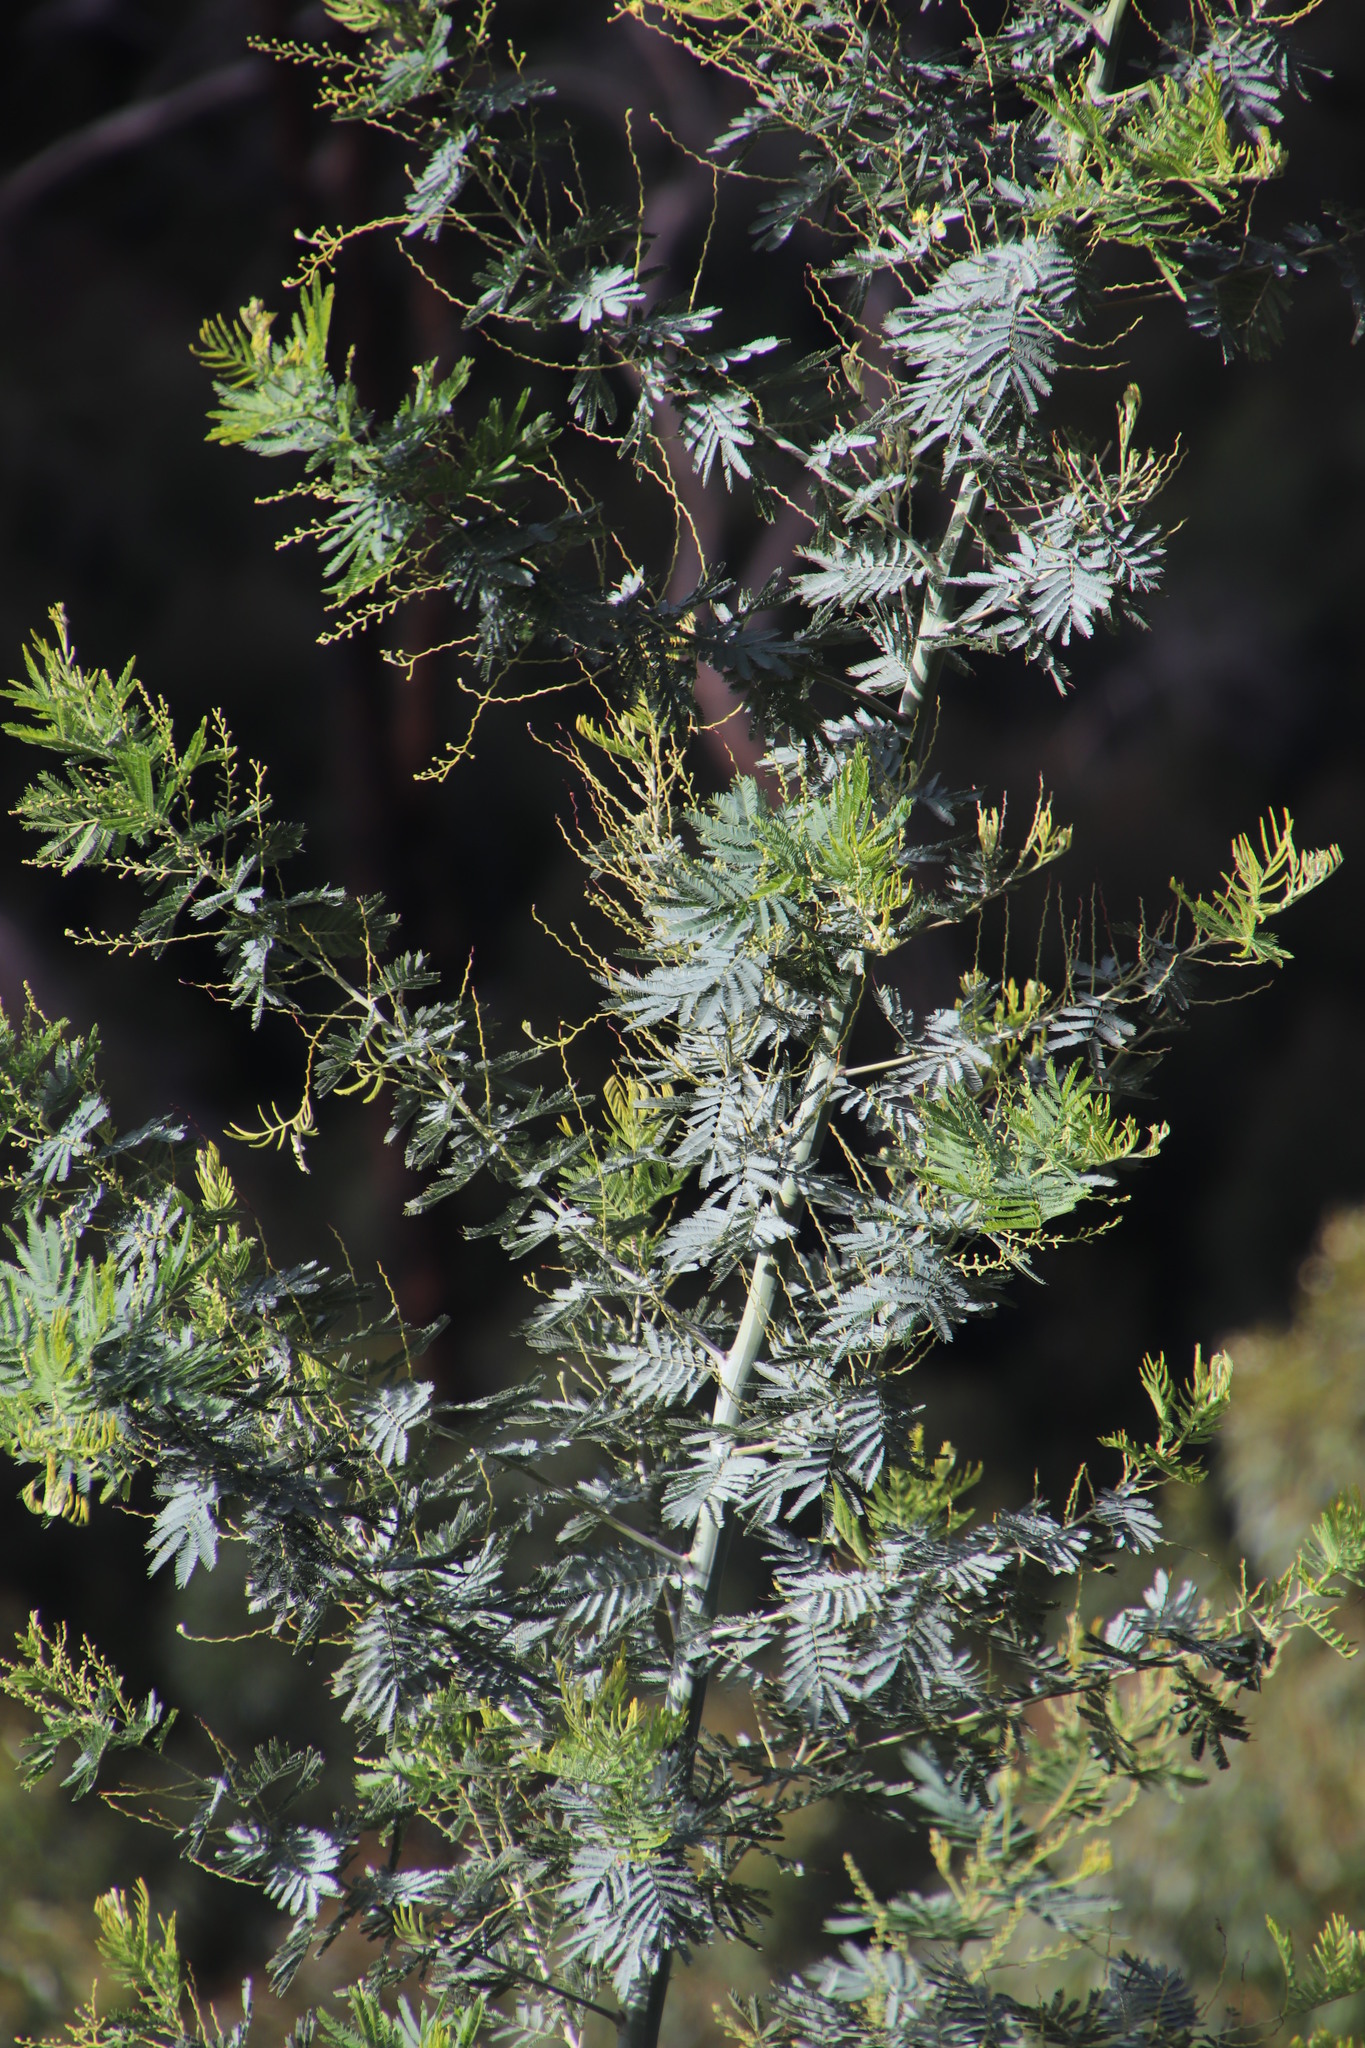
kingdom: Plantae
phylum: Tracheophyta
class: Magnoliopsida
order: Fabales
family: Fabaceae
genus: Acacia
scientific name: Acacia dealbata
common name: Silver wattle
